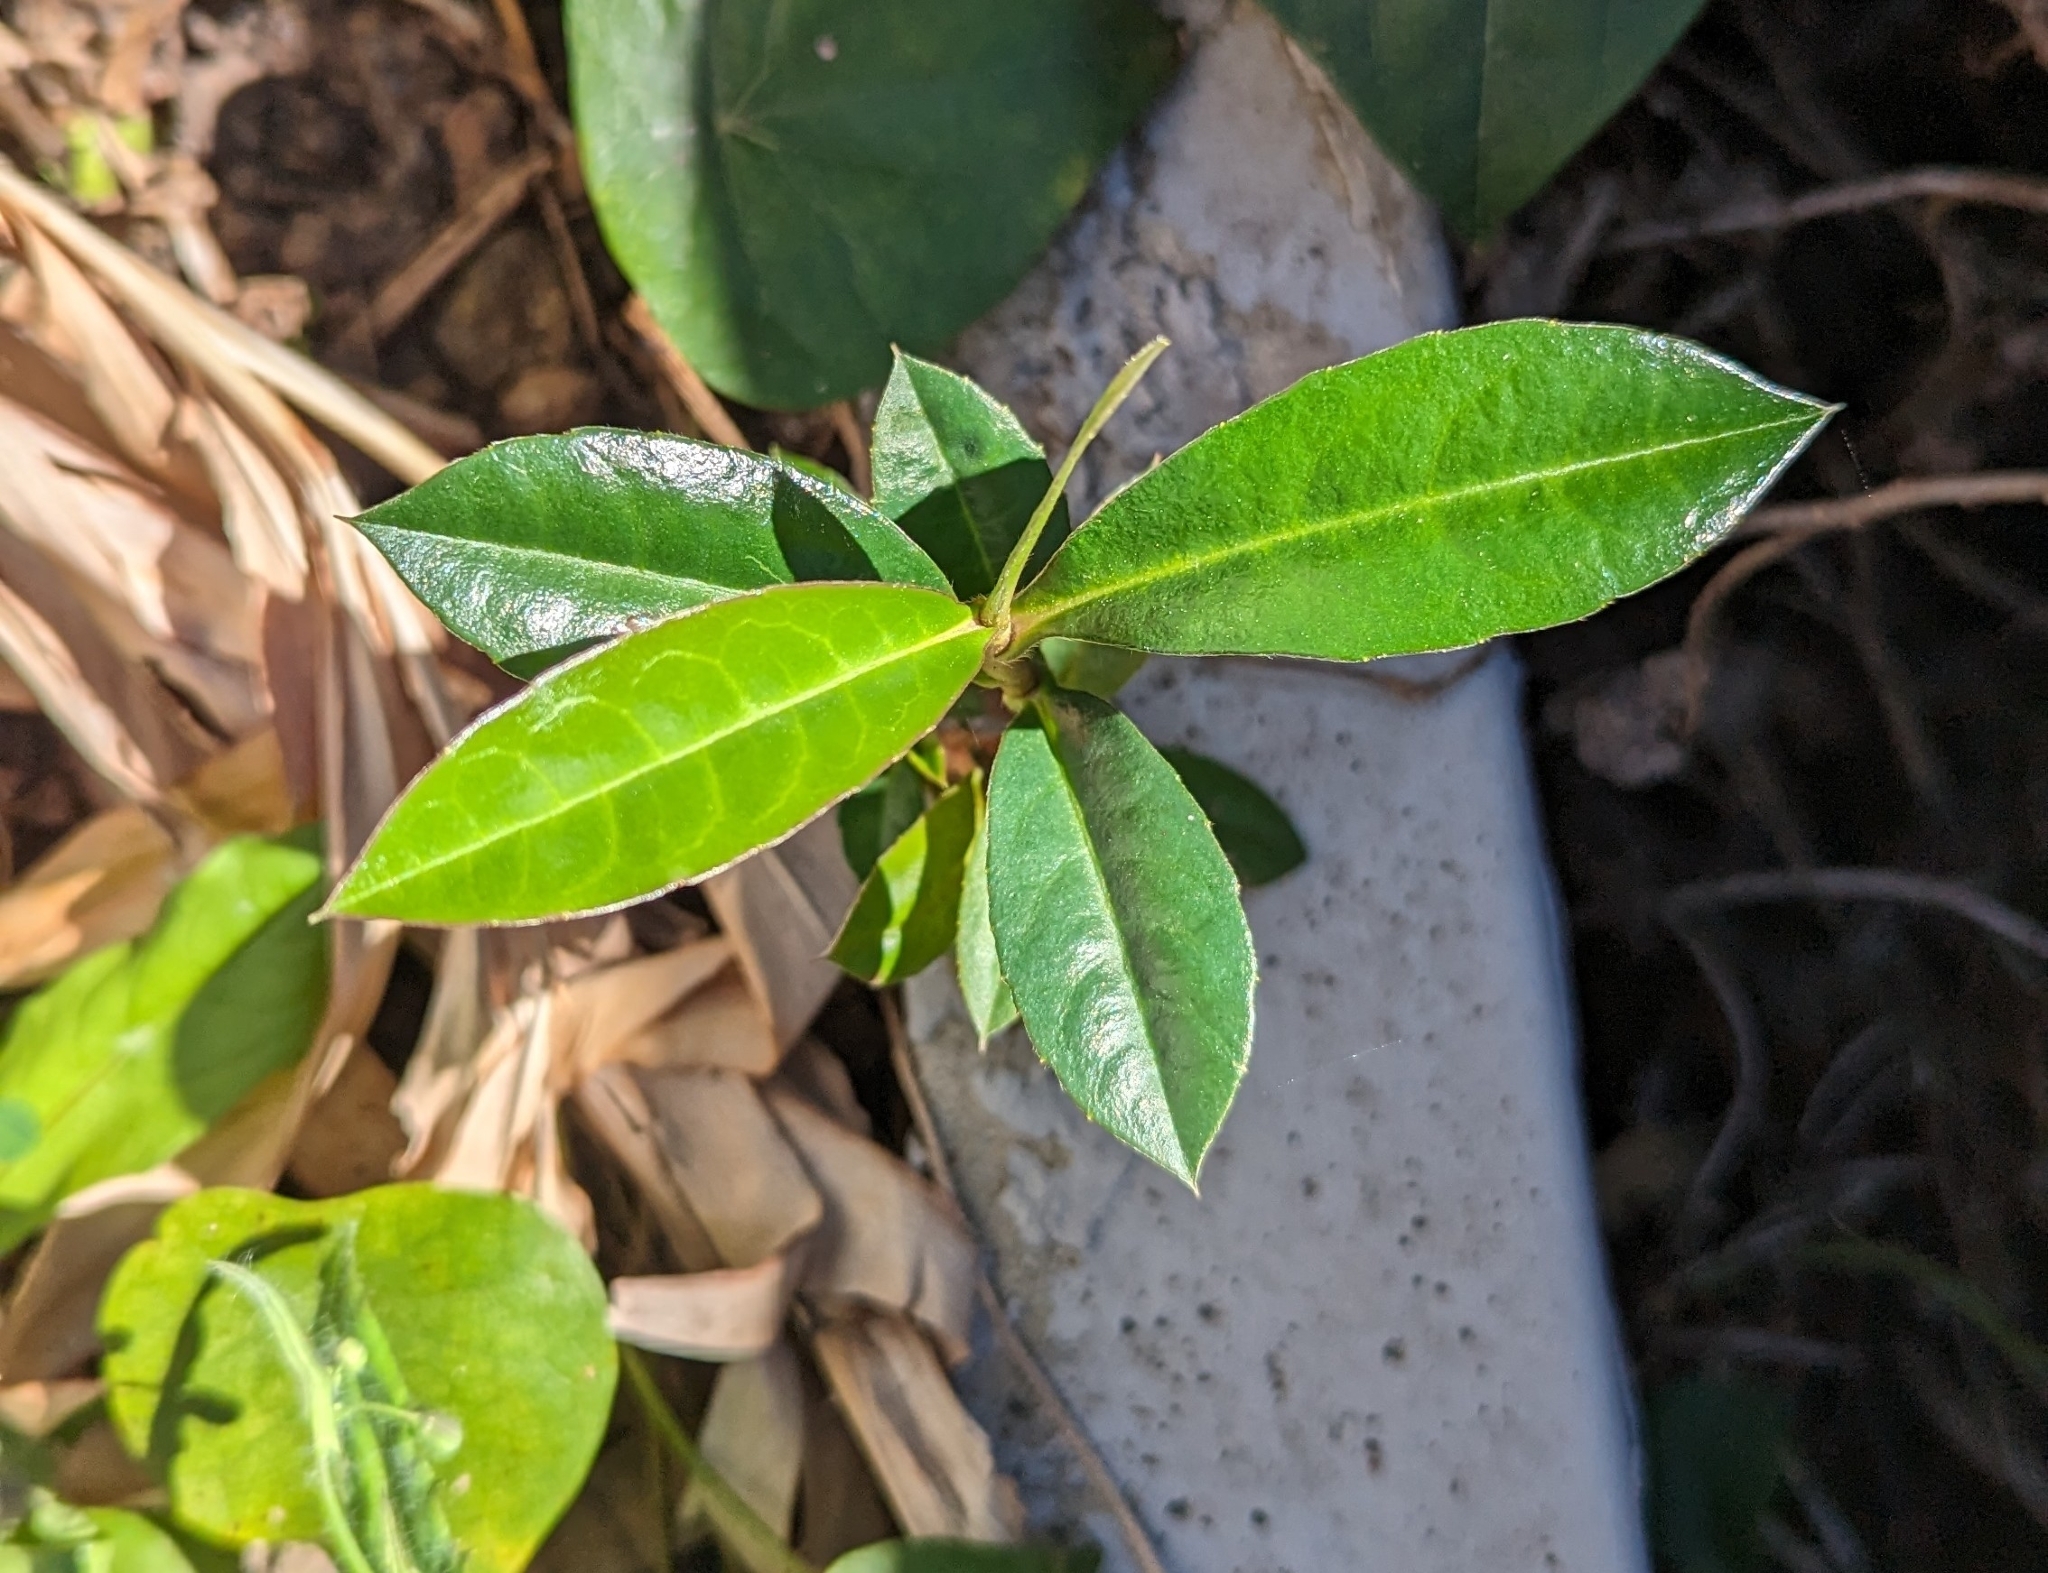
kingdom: Plantae
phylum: Tracheophyta
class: Magnoliopsida
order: Dilleniales
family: Dilleniaceae
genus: Hibbertia
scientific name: Hibbertia scandens
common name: Climbing guinea-flower
